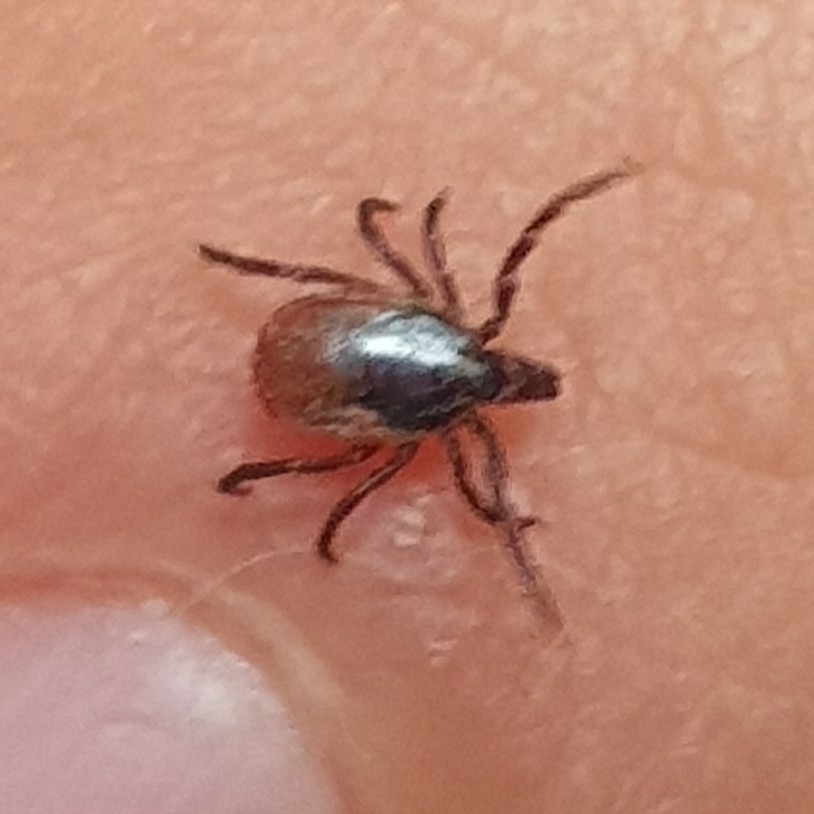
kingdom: Animalia
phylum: Arthropoda
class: Arachnida
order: Ixodida
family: Ixodidae
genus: Ixodes
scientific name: Ixodes ricinus
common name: Castor bean tick
